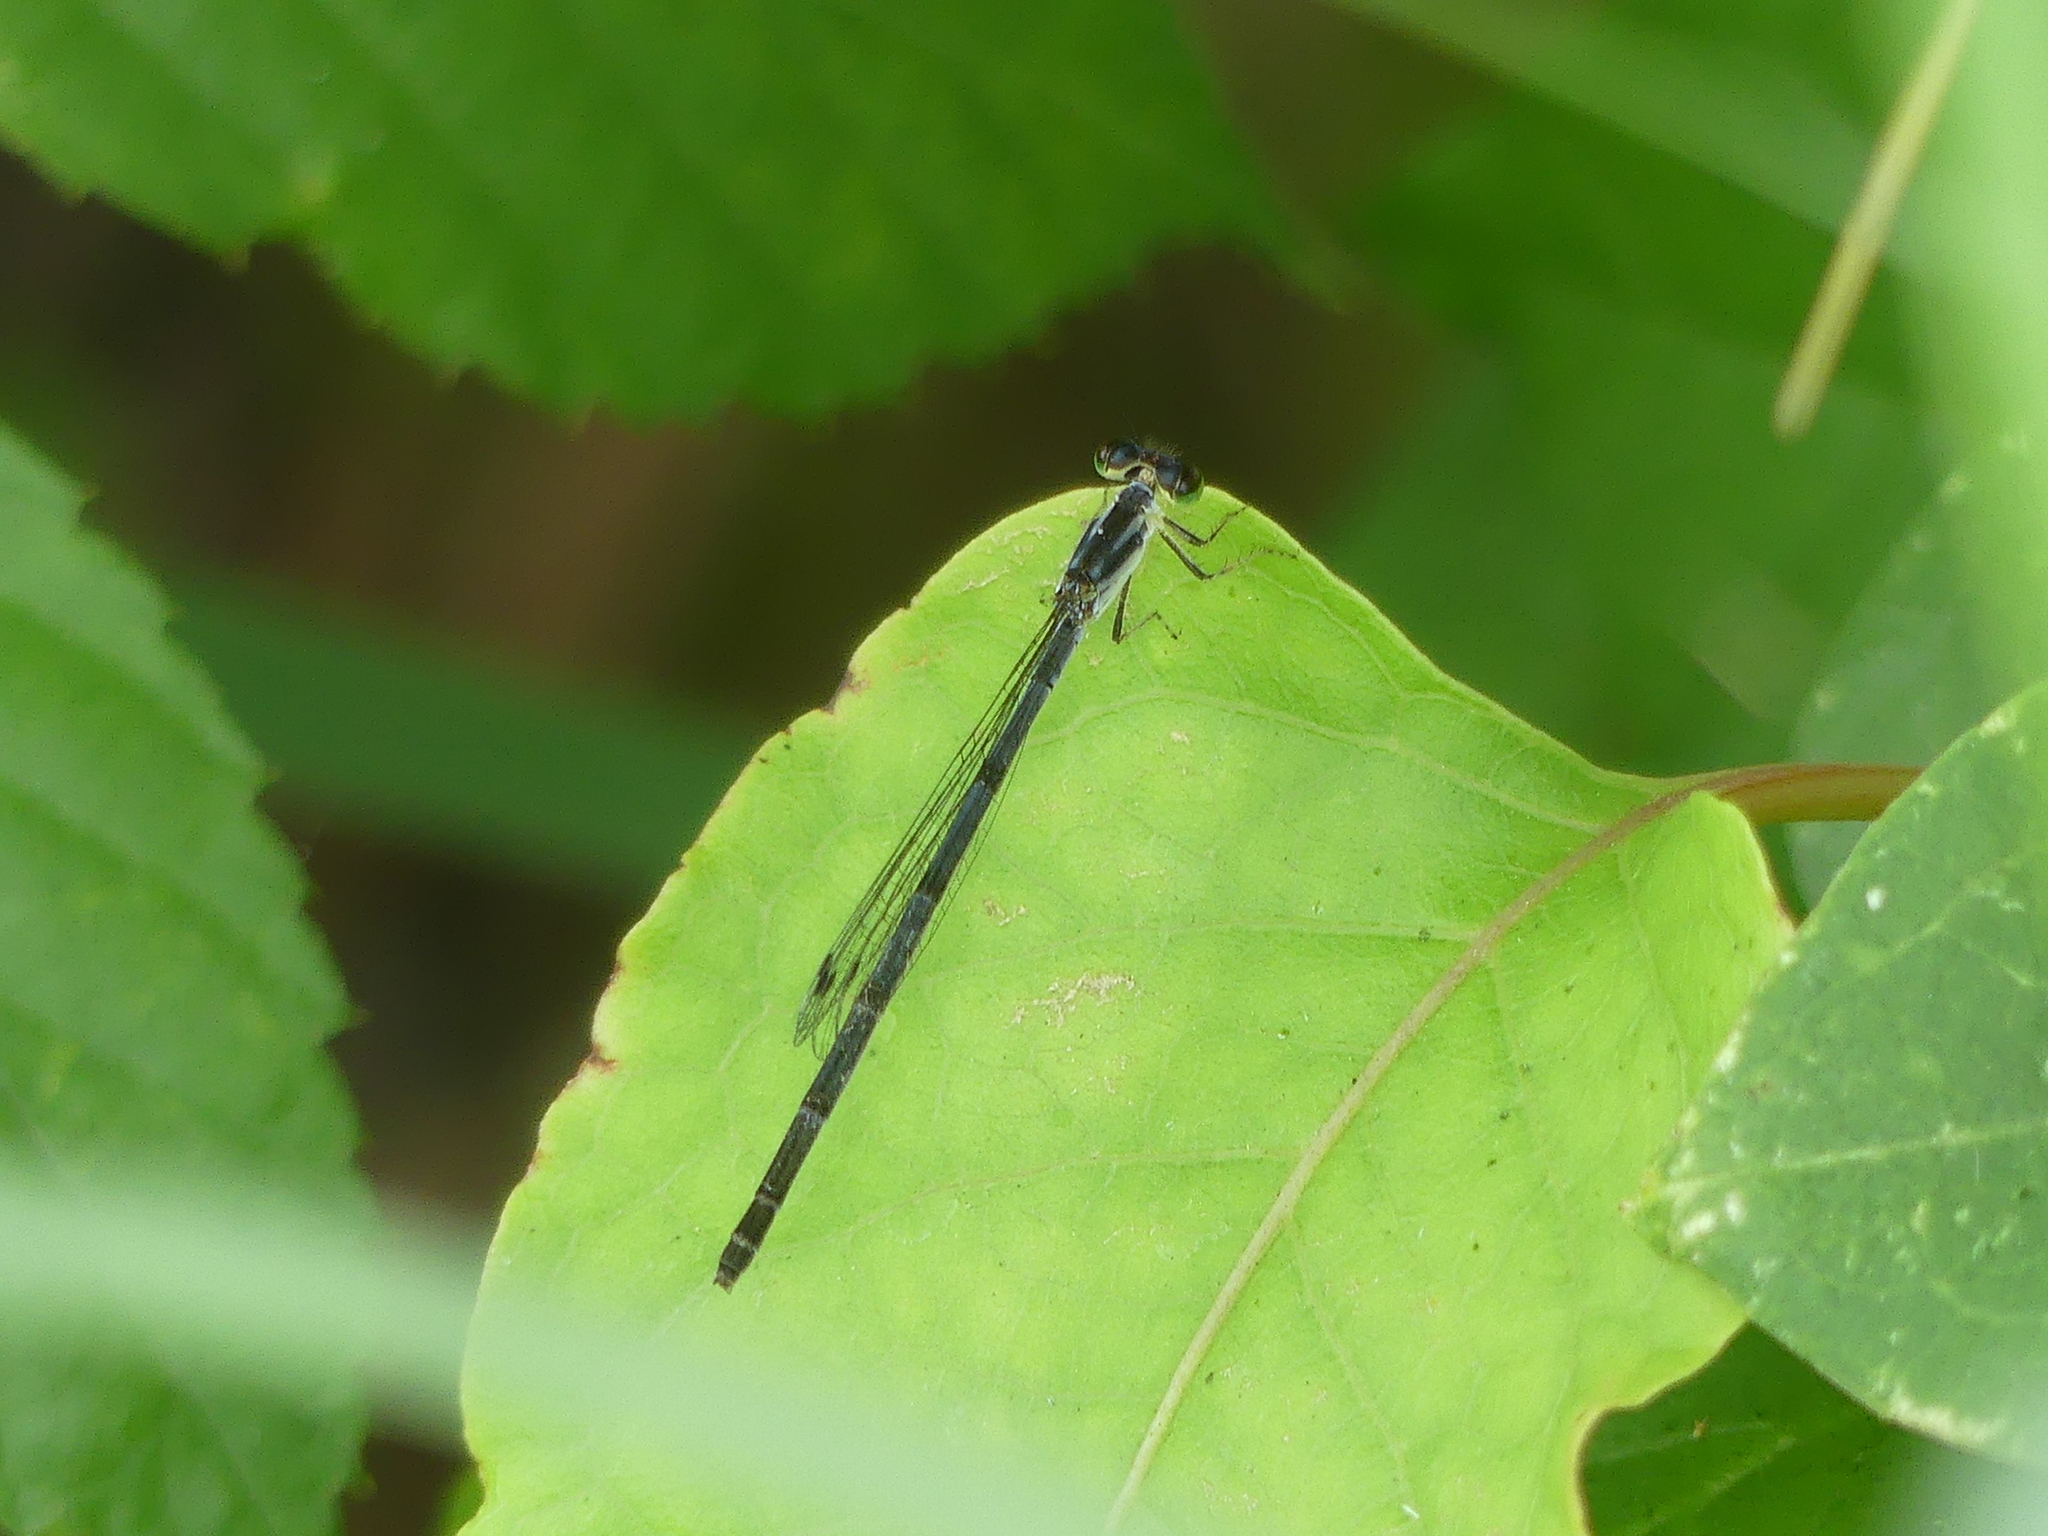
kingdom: Animalia
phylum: Arthropoda
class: Insecta
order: Odonata
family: Coenagrionidae
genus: Ischnura
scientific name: Ischnura posita
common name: Fragile forktail
